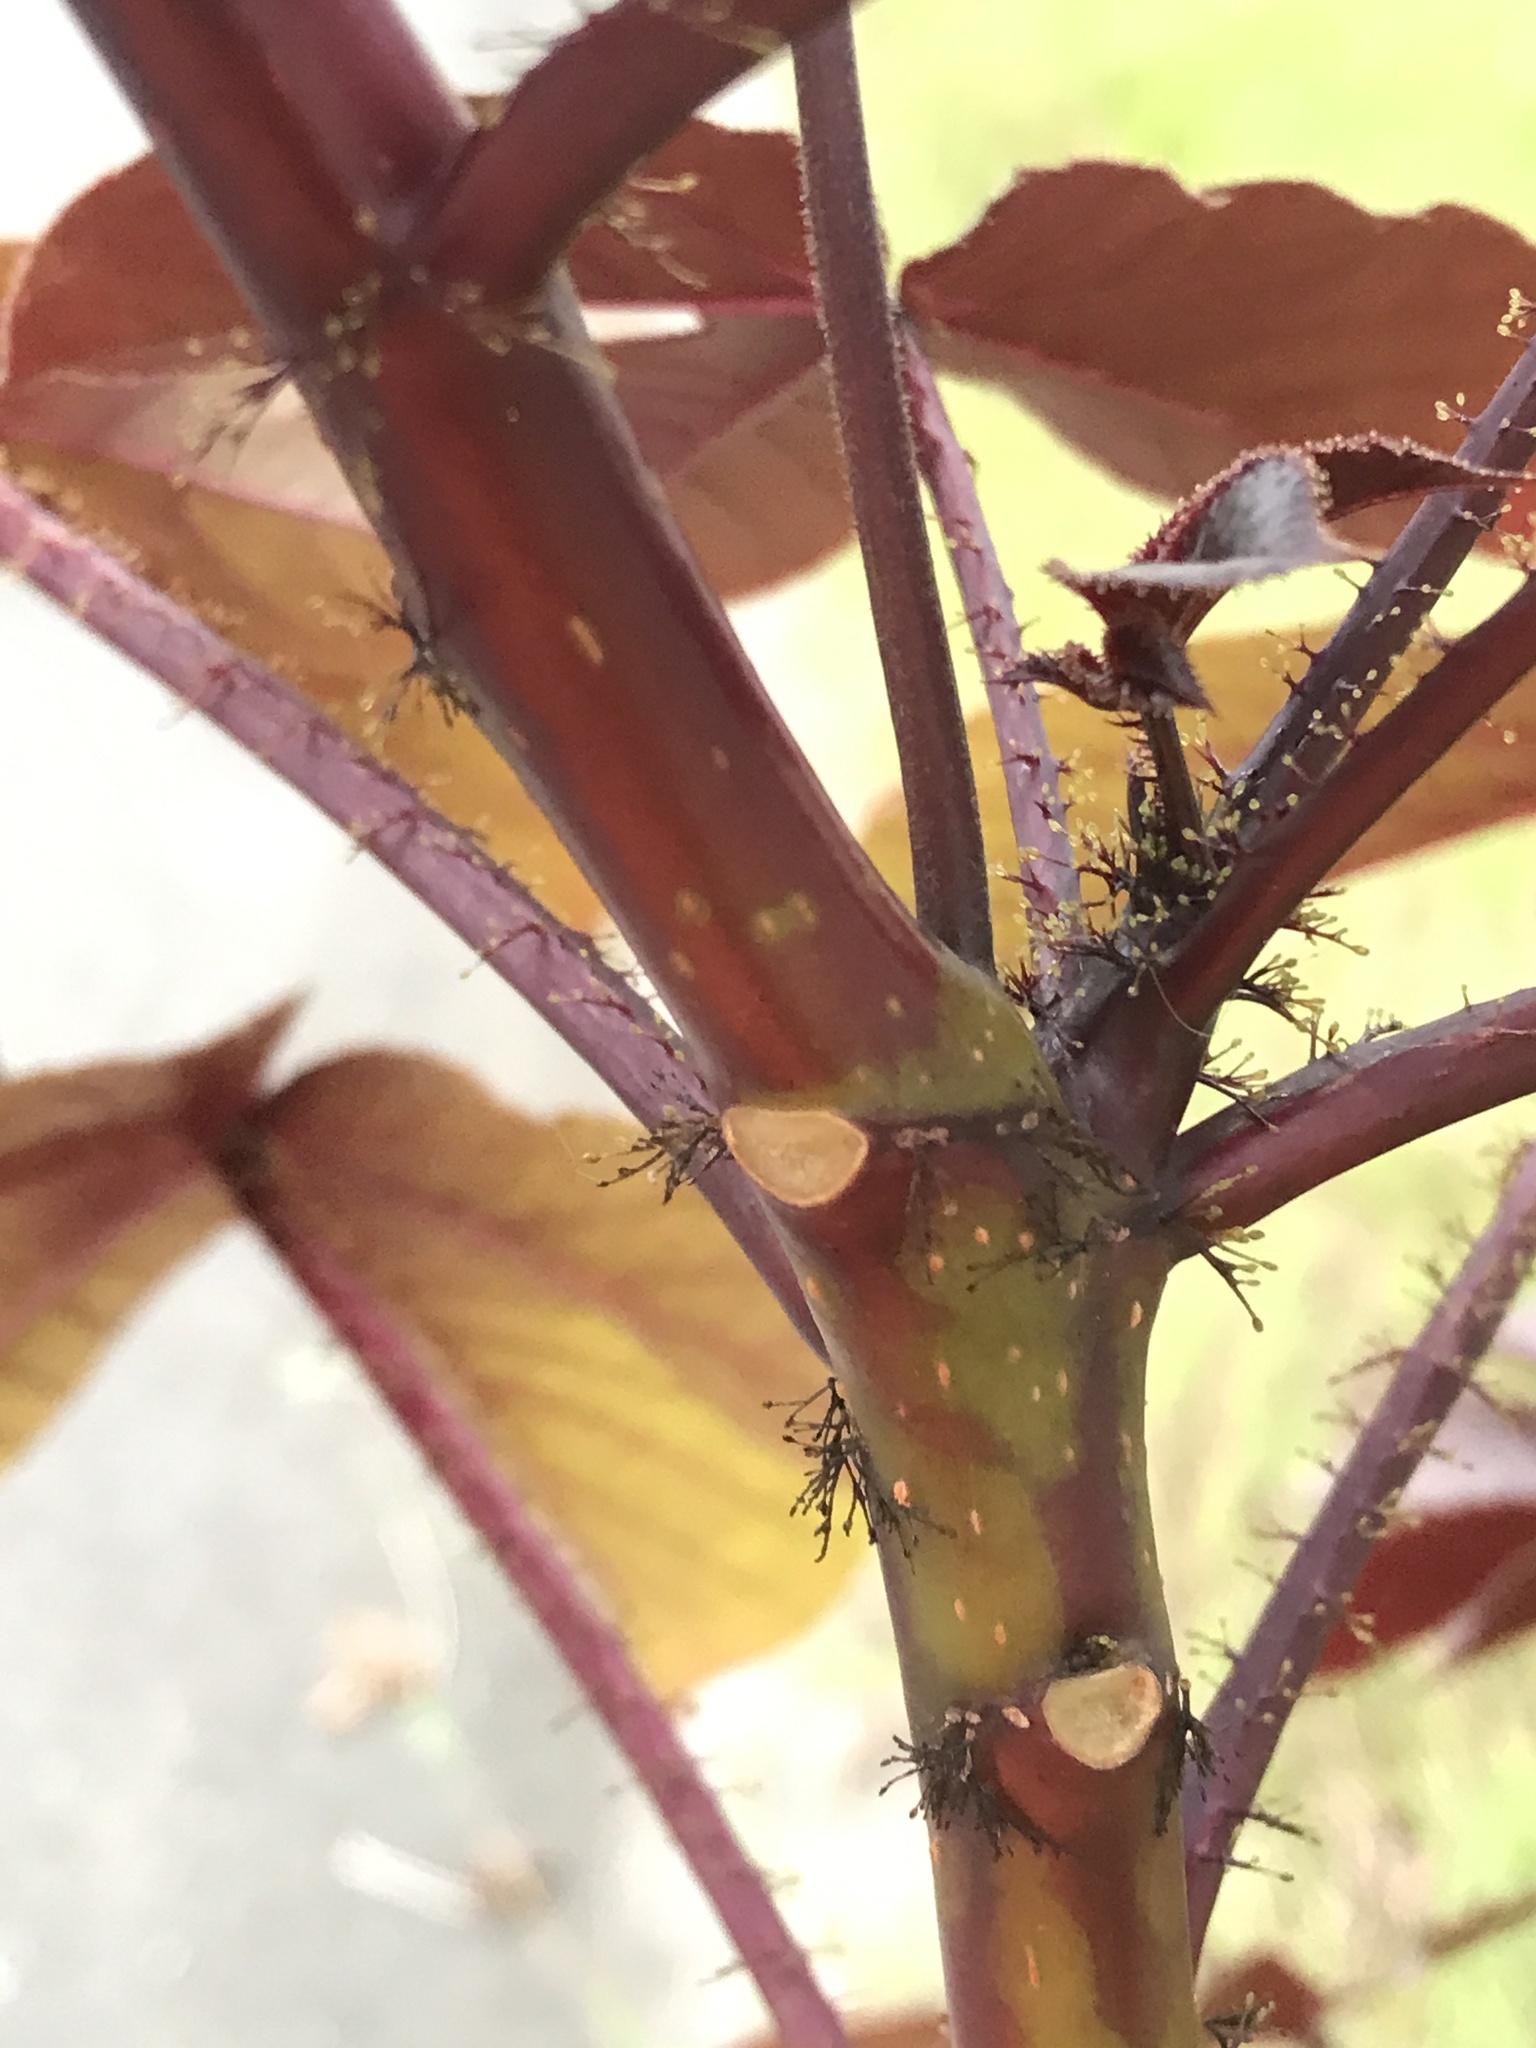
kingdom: Plantae
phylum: Tracheophyta
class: Magnoliopsida
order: Malpighiales
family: Euphorbiaceae
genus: Jatropha
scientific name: Jatropha gossypiifolia
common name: Bellyache bush
